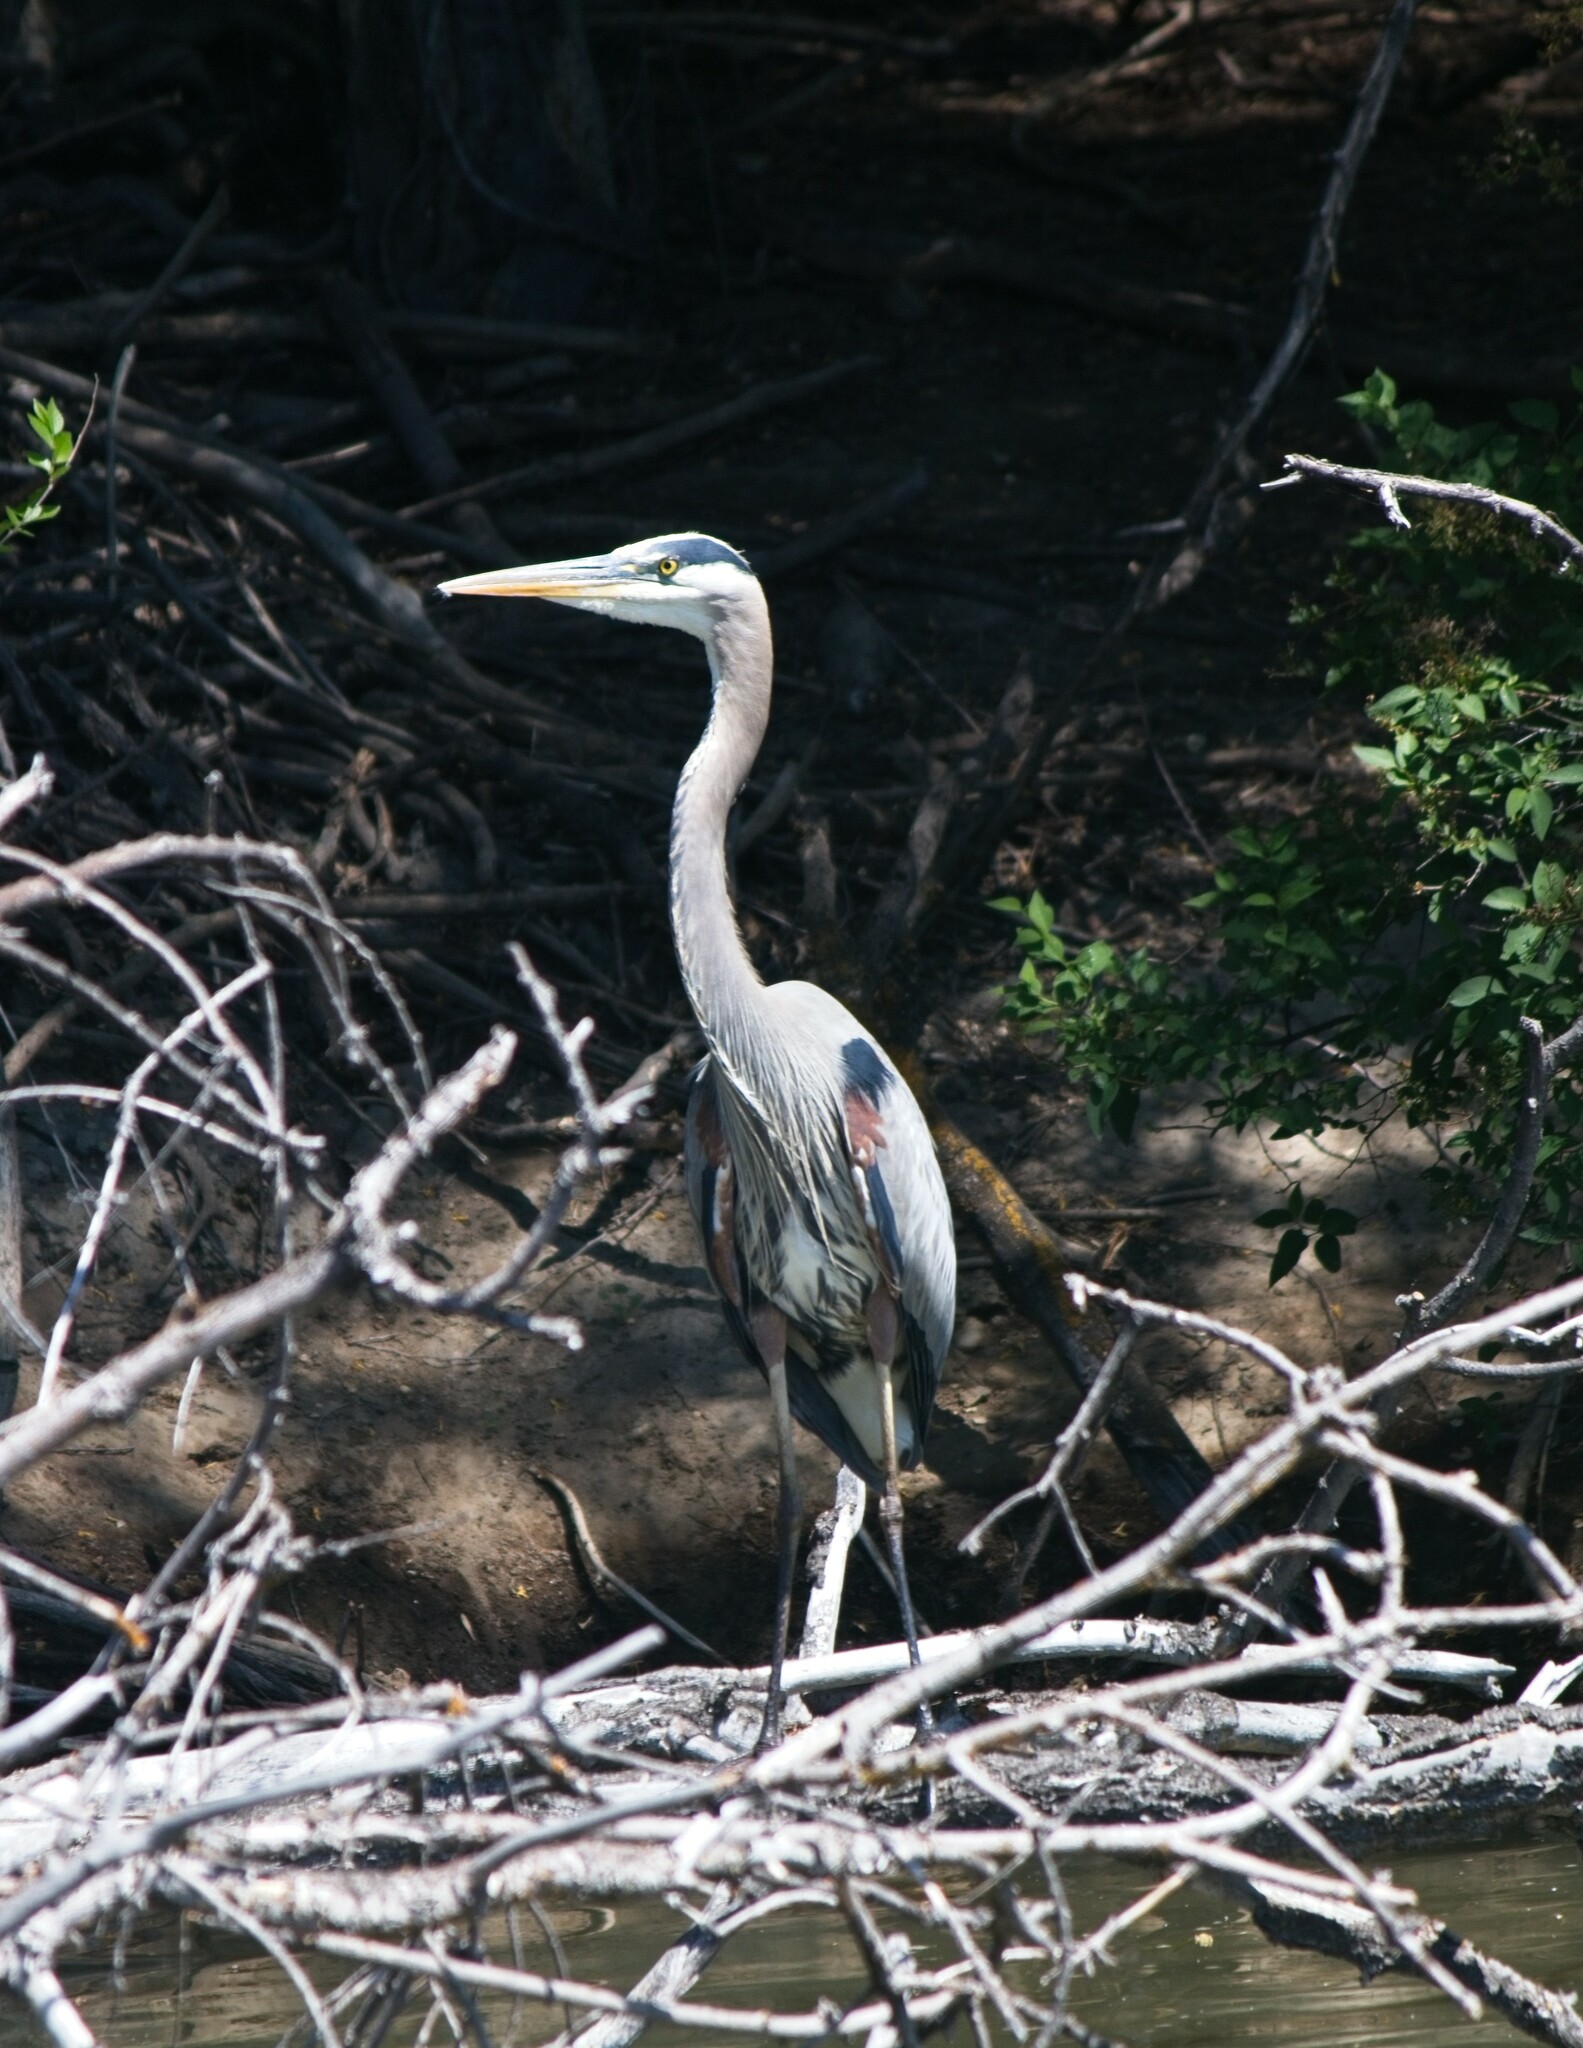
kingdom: Animalia
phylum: Chordata
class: Aves
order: Pelecaniformes
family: Ardeidae
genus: Ardea
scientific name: Ardea herodias
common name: Great blue heron
